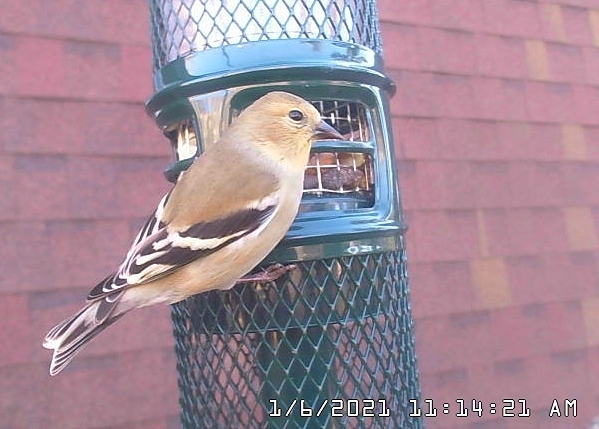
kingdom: Animalia
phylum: Chordata
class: Aves
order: Passeriformes
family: Fringillidae
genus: Spinus
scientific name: Spinus tristis
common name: American goldfinch
